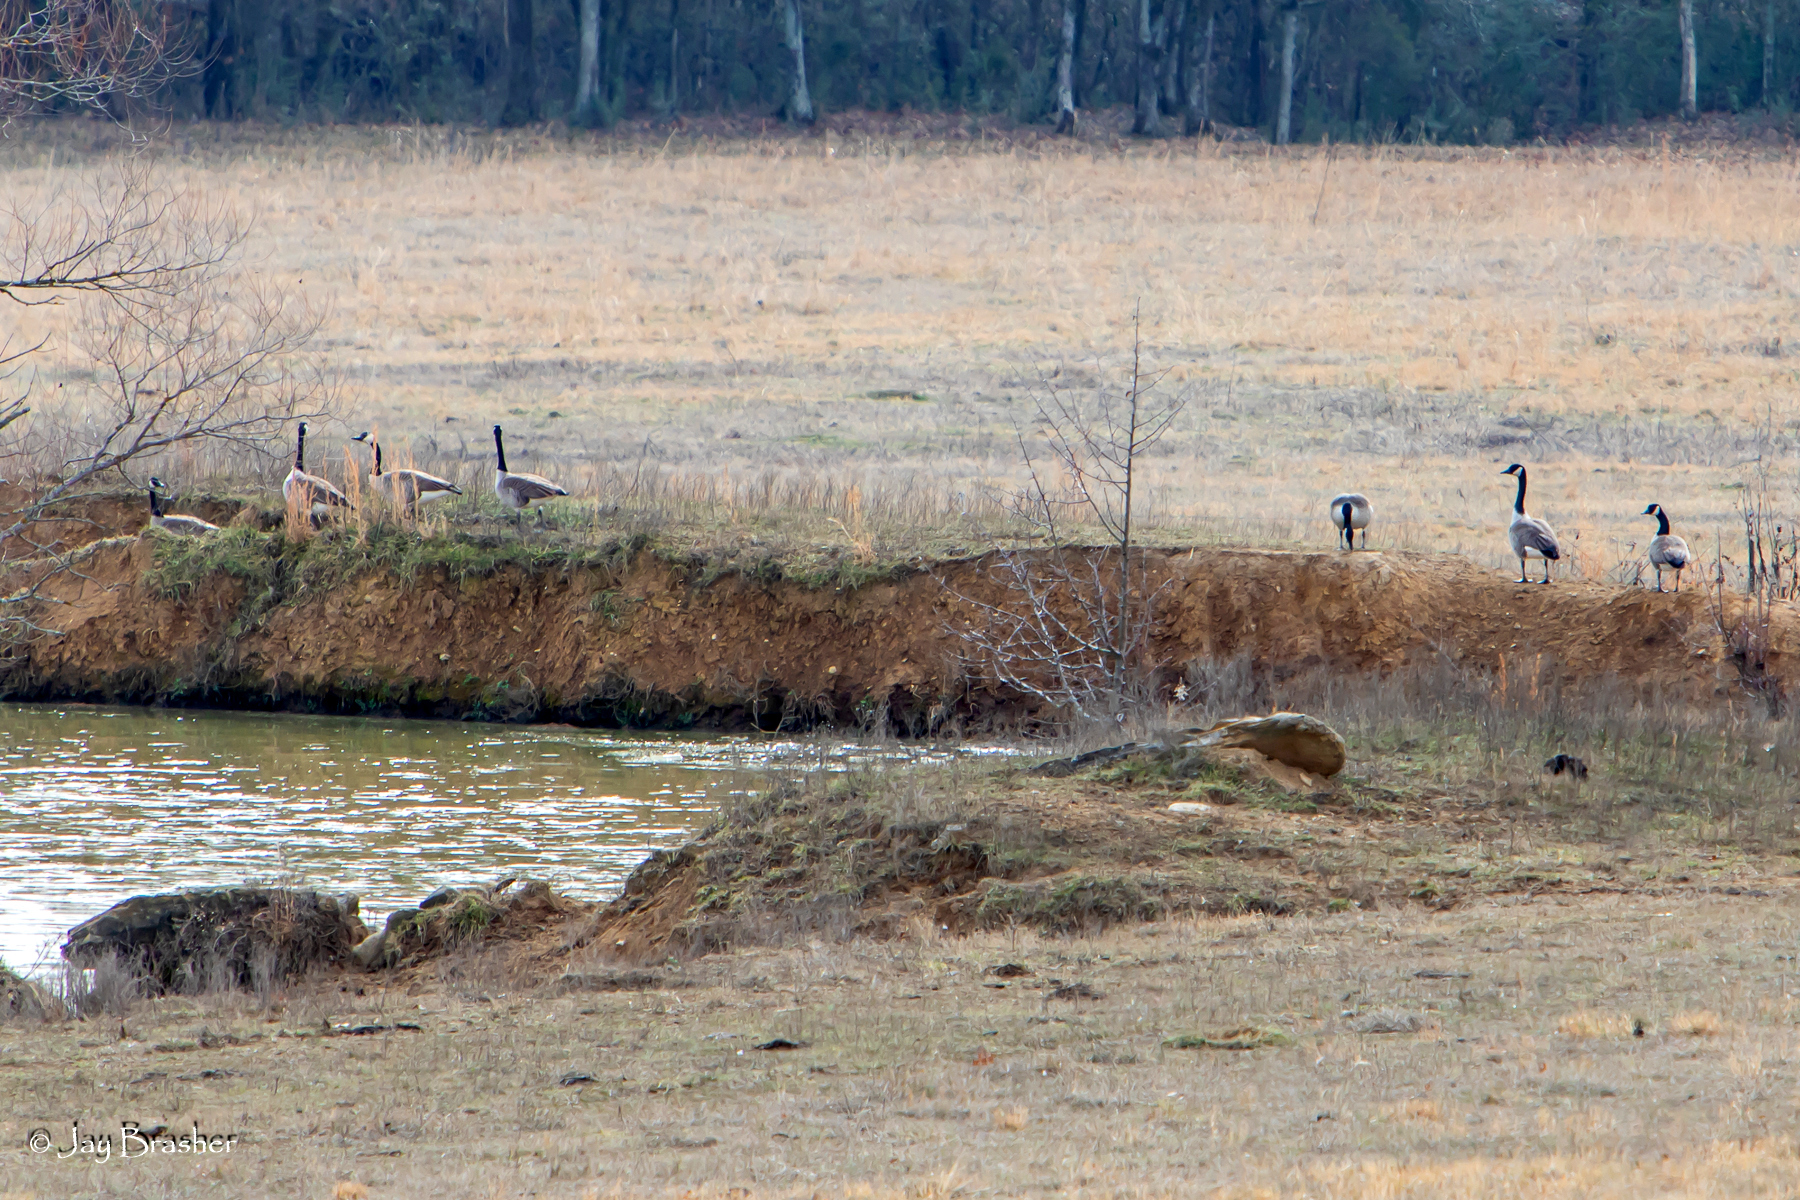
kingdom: Animalia
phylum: Chordata
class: Aves
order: Anseriformes
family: Anatidae
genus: Branta
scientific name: Branta canadensis
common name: Canada goose
